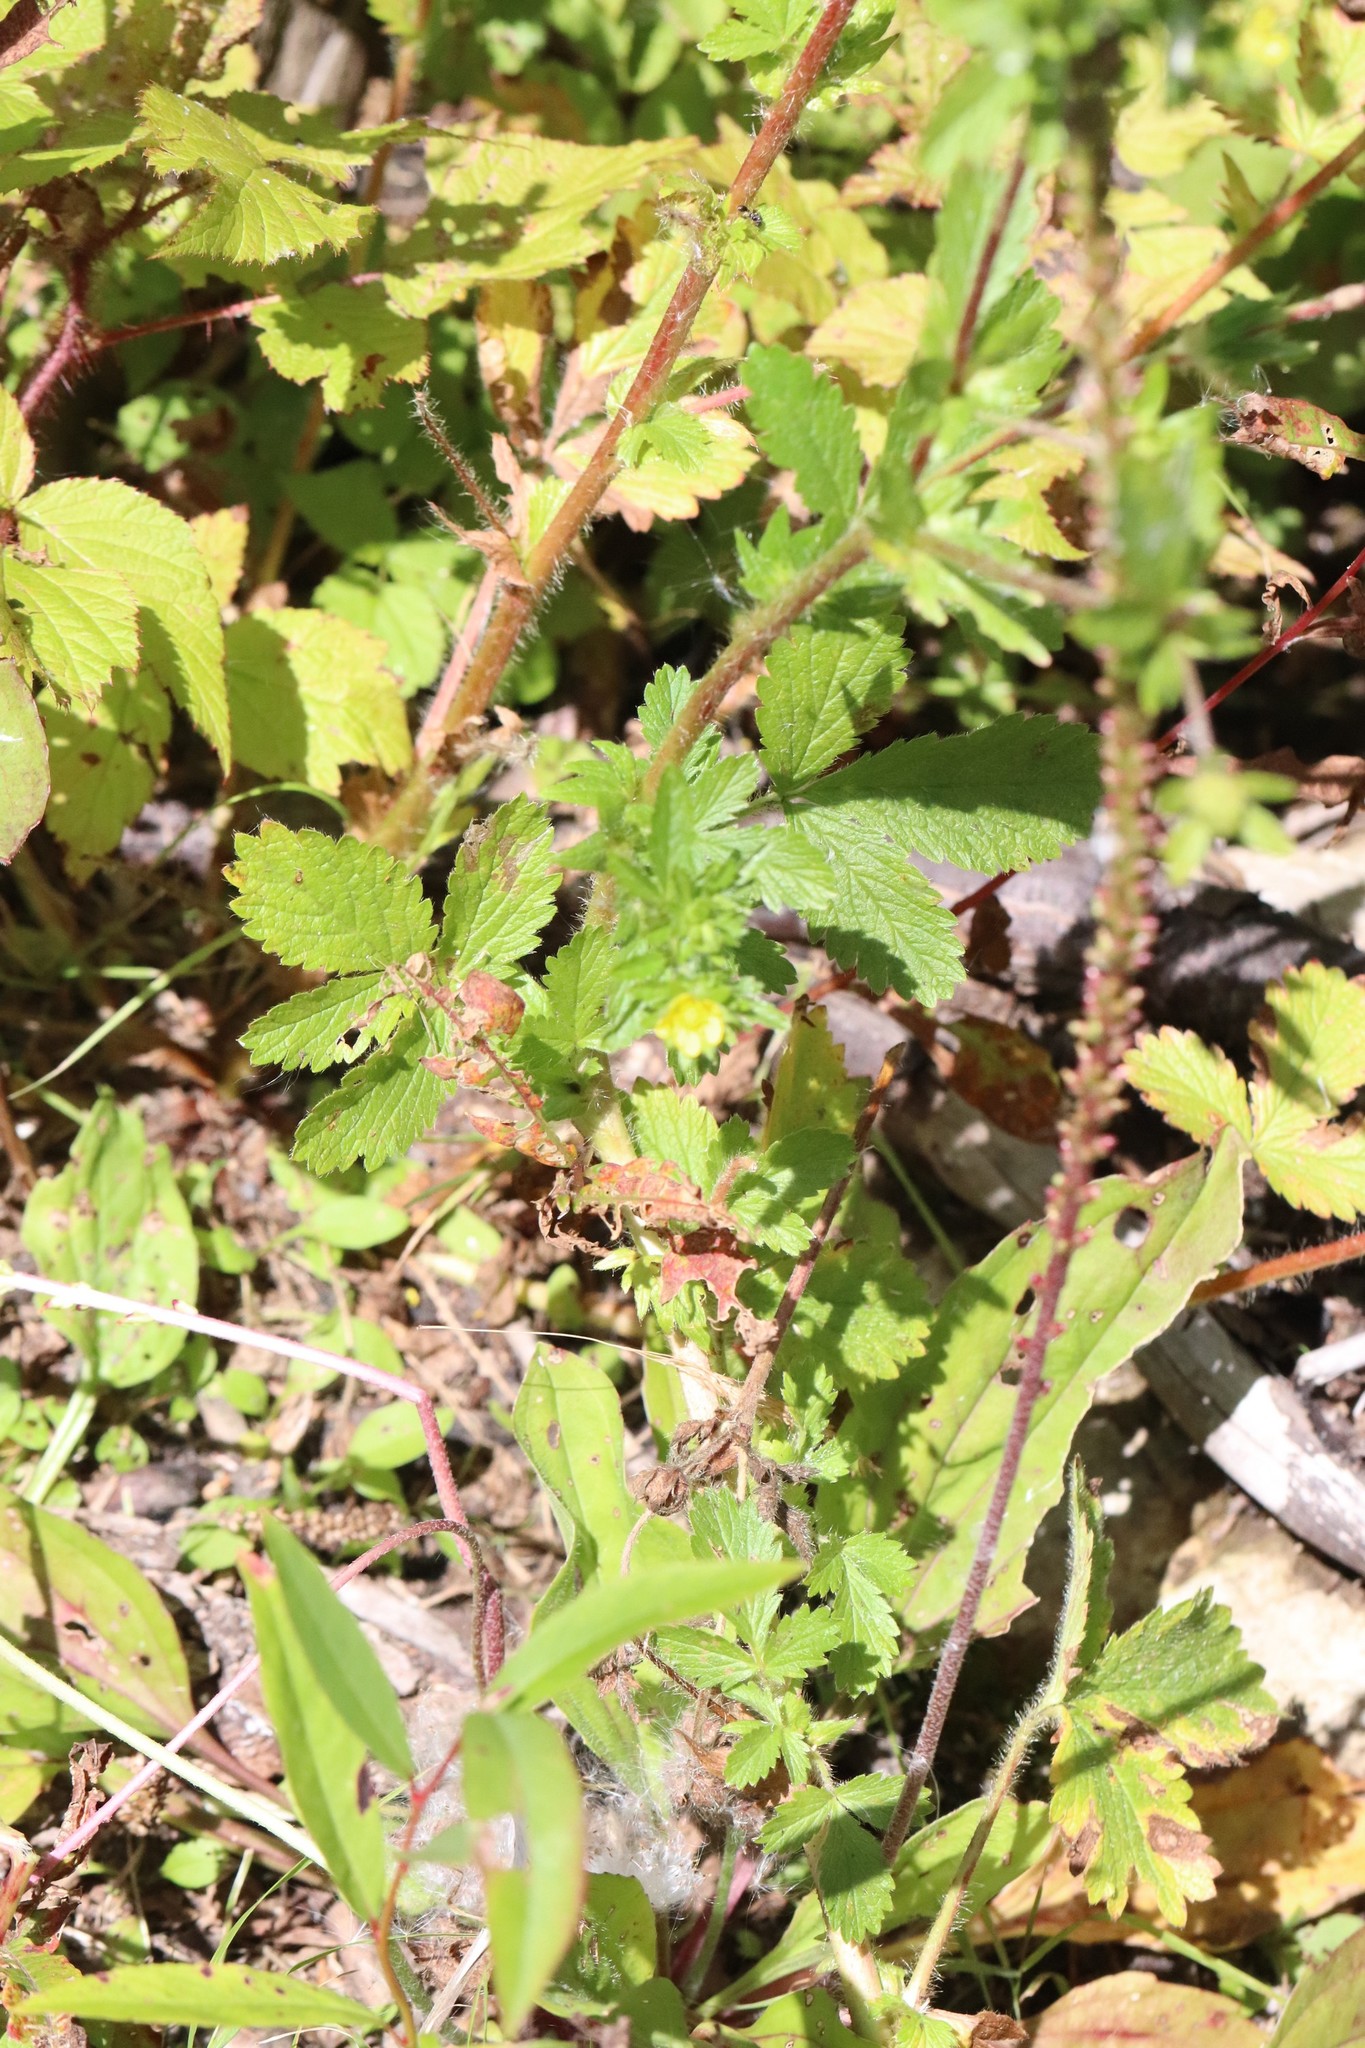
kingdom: Plantae
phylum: Tracheophyta
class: Magnoliopsida
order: Rosales
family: Rosaceae
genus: Potentilla
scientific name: Potentilla norvegica
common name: Ternate-leaved cinquefoil
